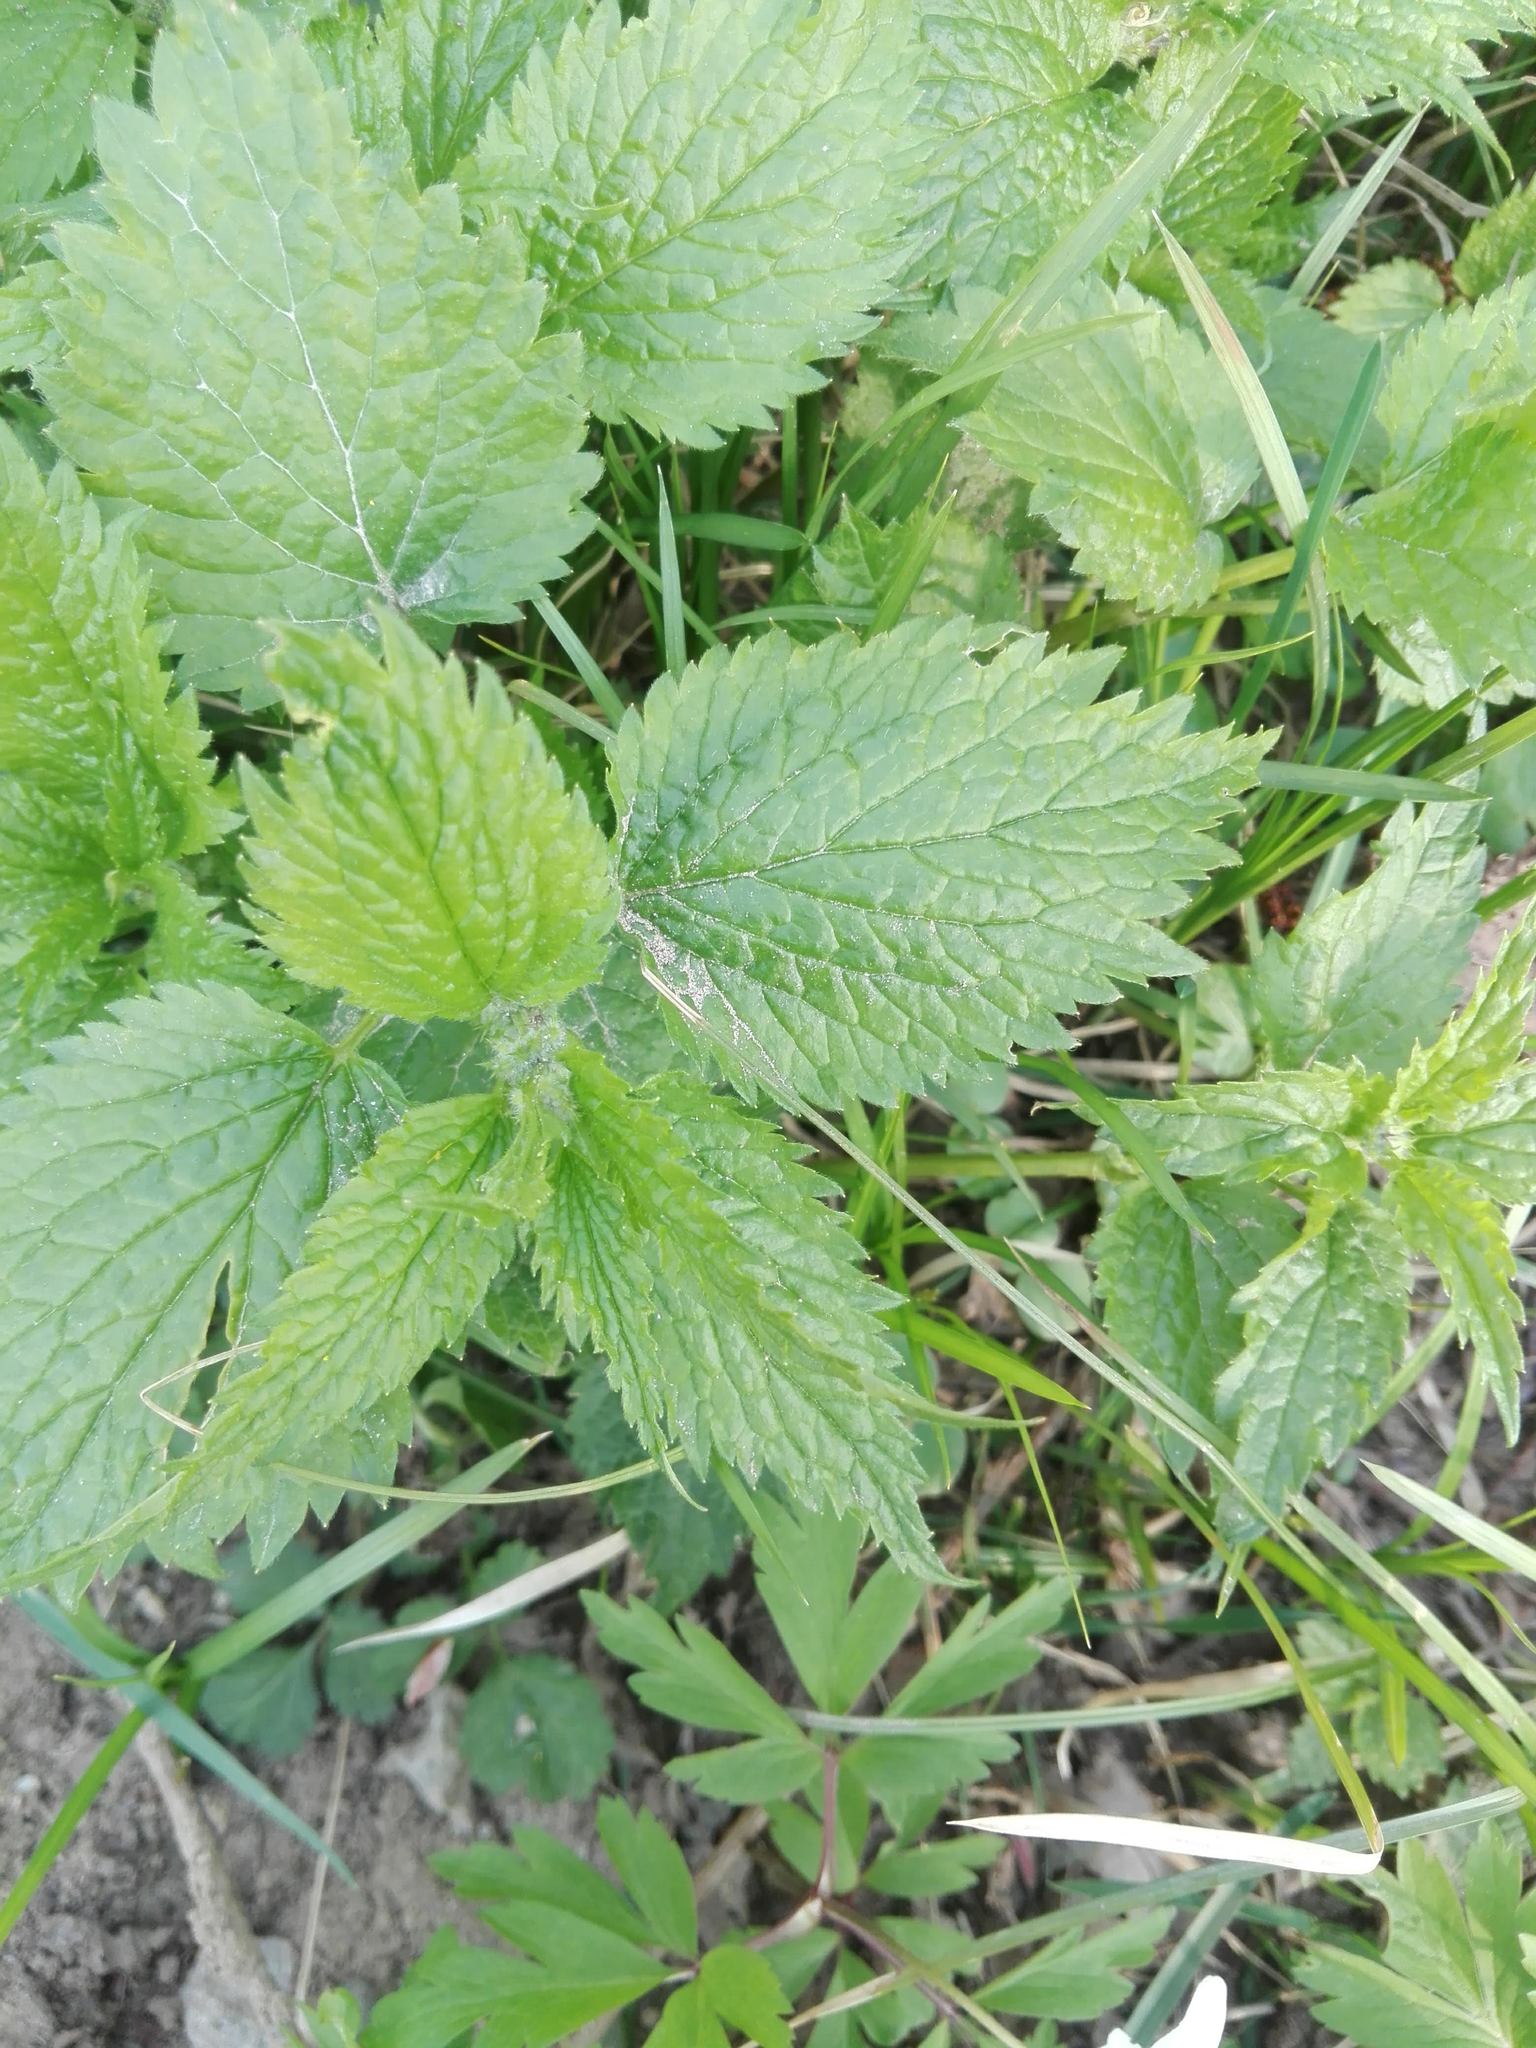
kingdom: Plantae
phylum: Tracheophyta
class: Magnoliopsida
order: Lamiales
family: Lamiaceae
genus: Lamium
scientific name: Lamium galeobdolon
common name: Yellow archangel
